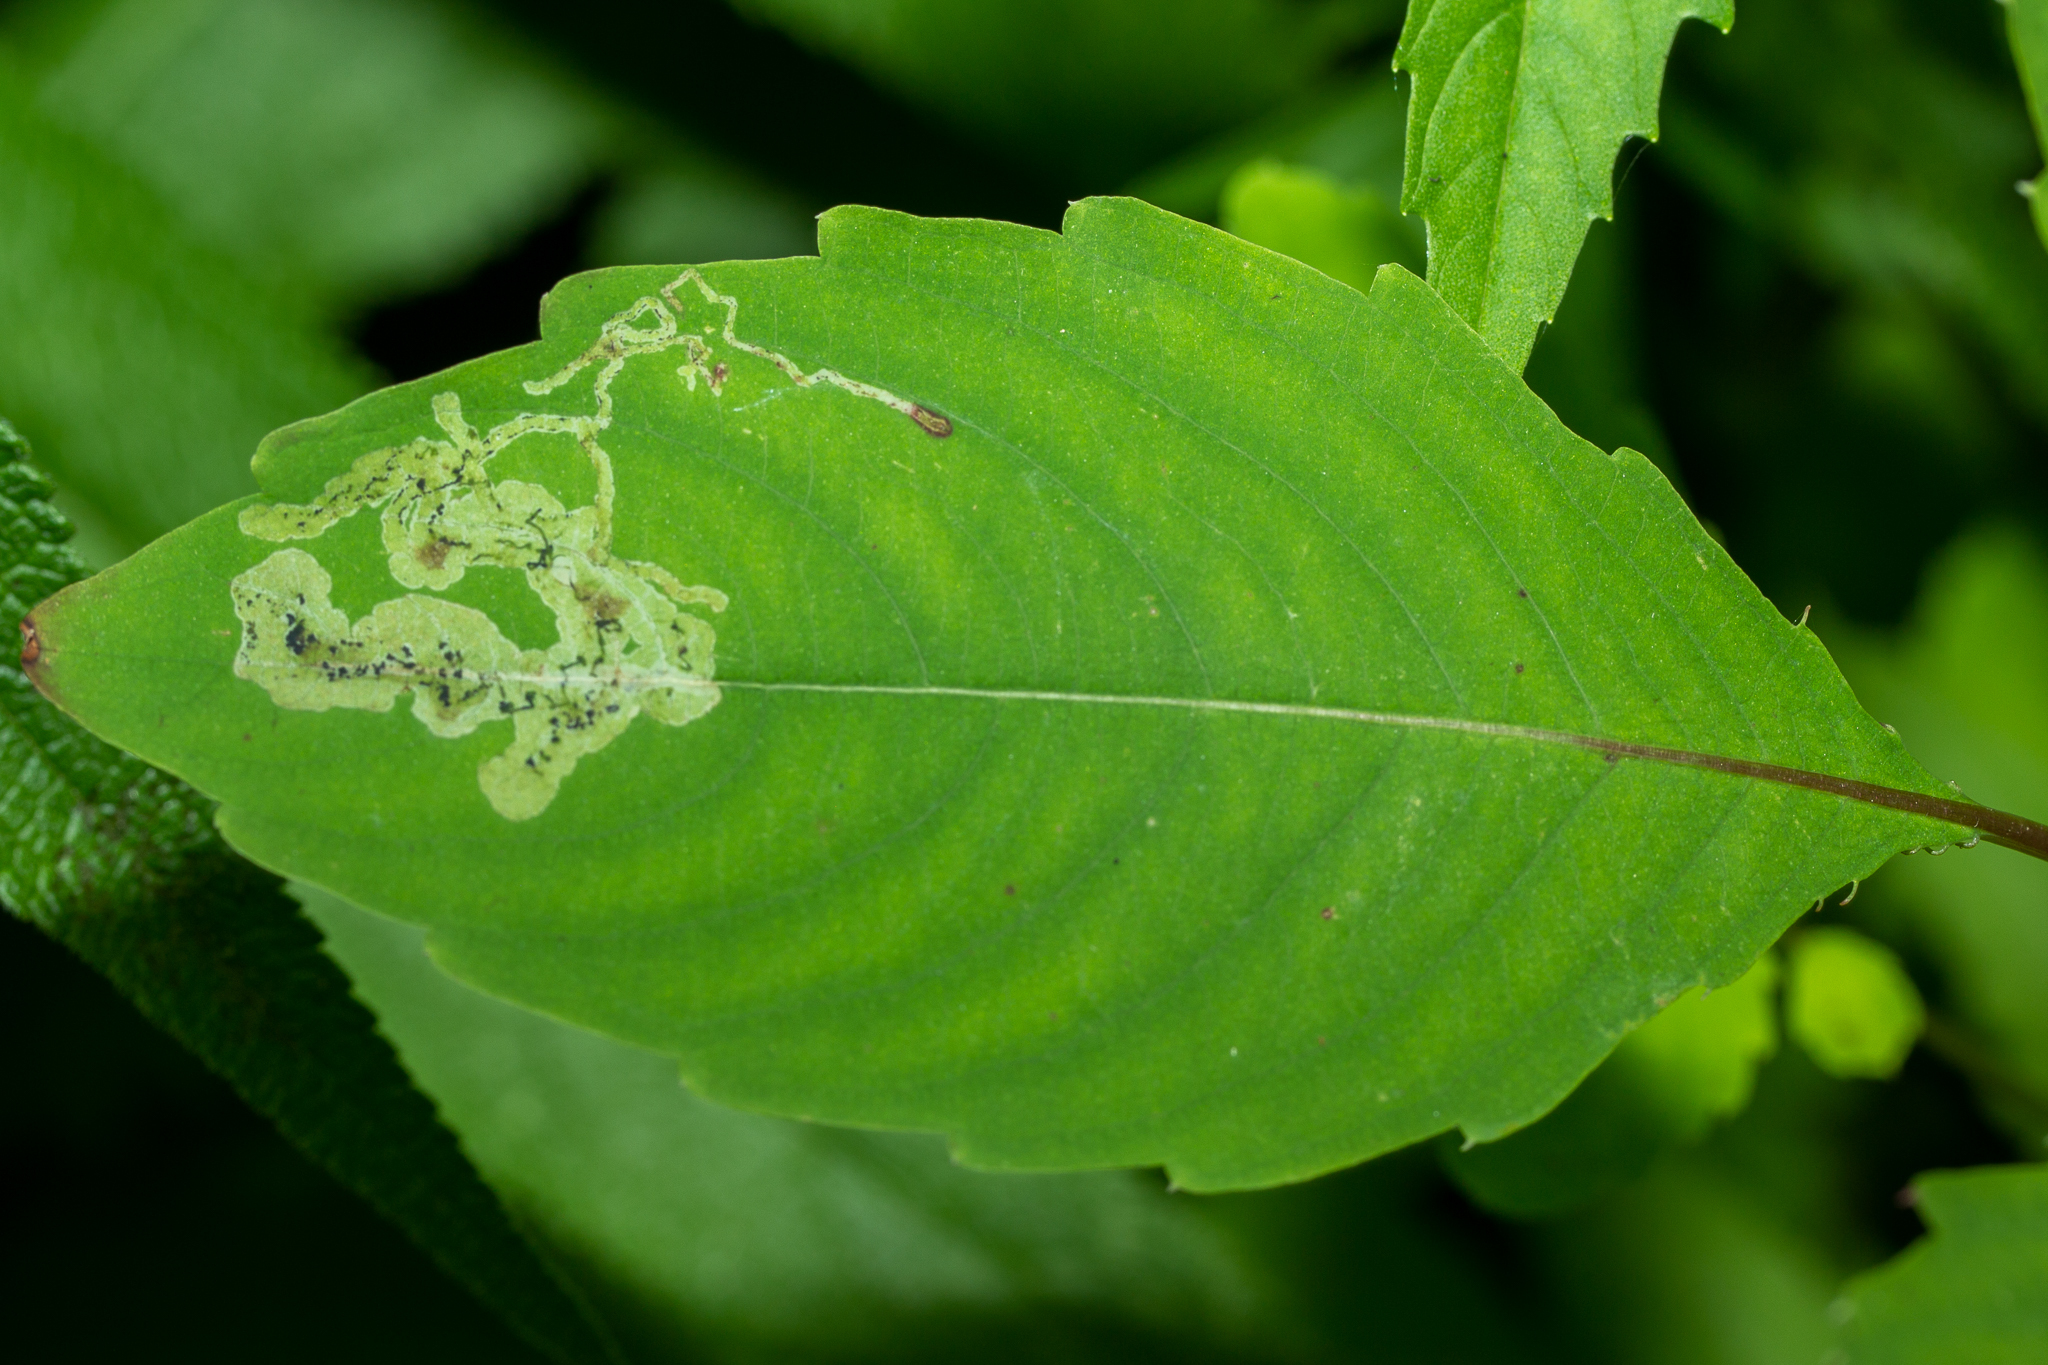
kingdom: Animalia
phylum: Arthropoda
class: Insecta
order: Diptera
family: Agromyzidae
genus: Phytoliriomyza
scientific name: Phytoliriomyza melampyga
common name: Jewelweed leaf-miner fly
